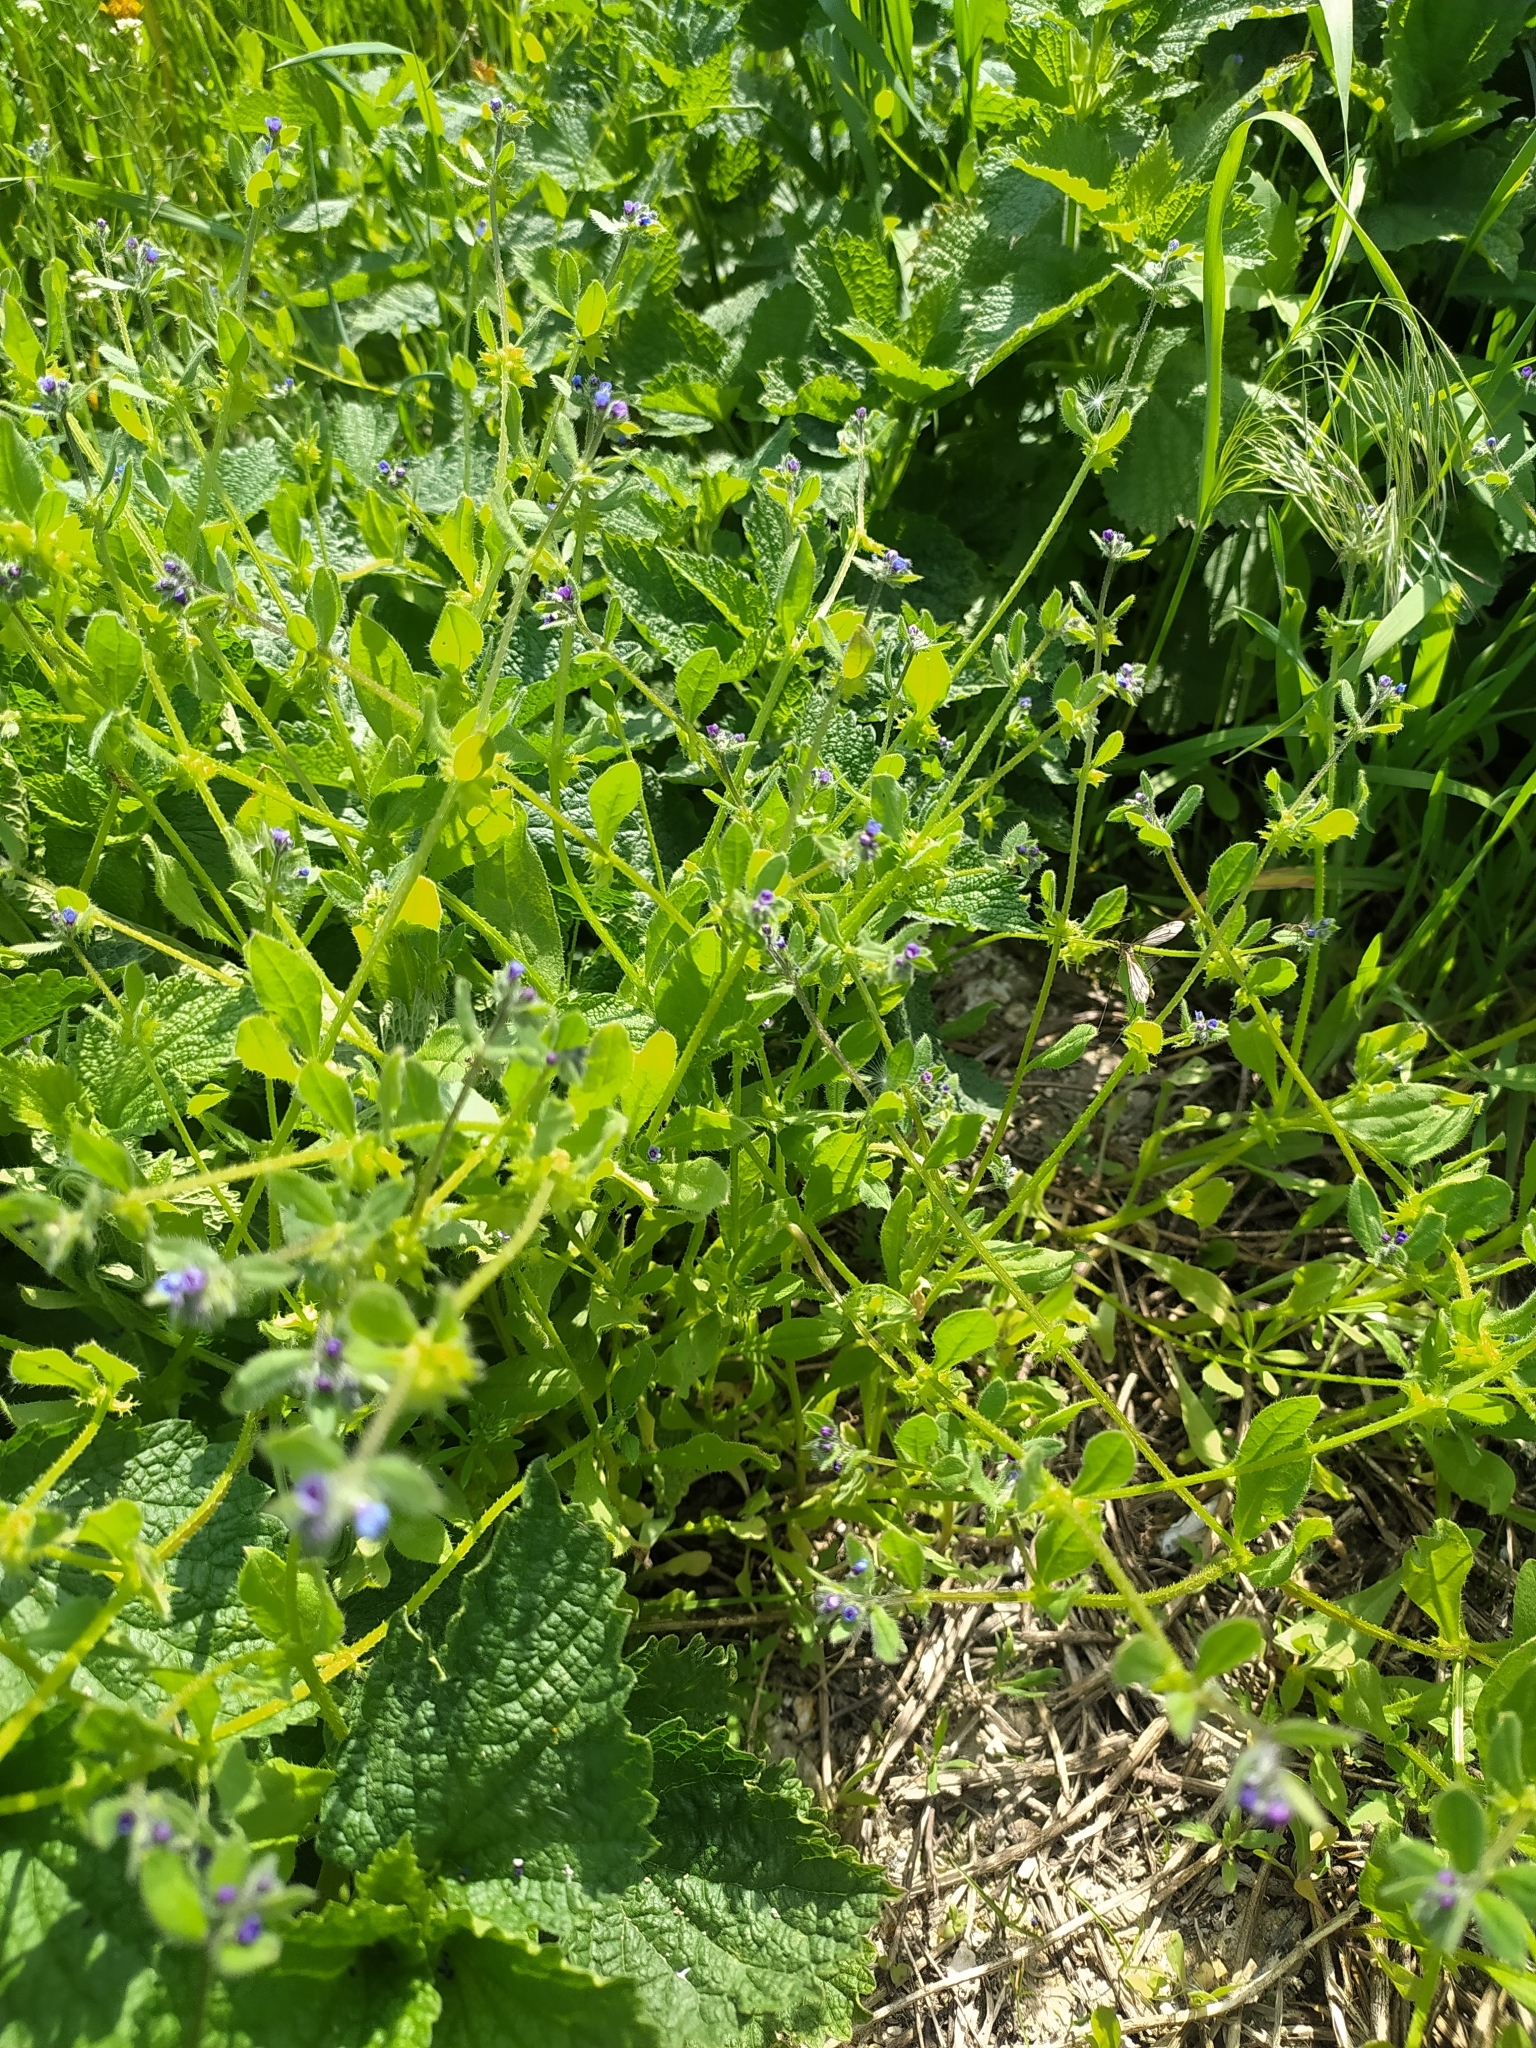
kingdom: Plantae
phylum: Tracheophyta
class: Magnoliopsida
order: Boraginales
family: Boraginaceae
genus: Asperugo
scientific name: Asperugo procumbens
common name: Madwort
